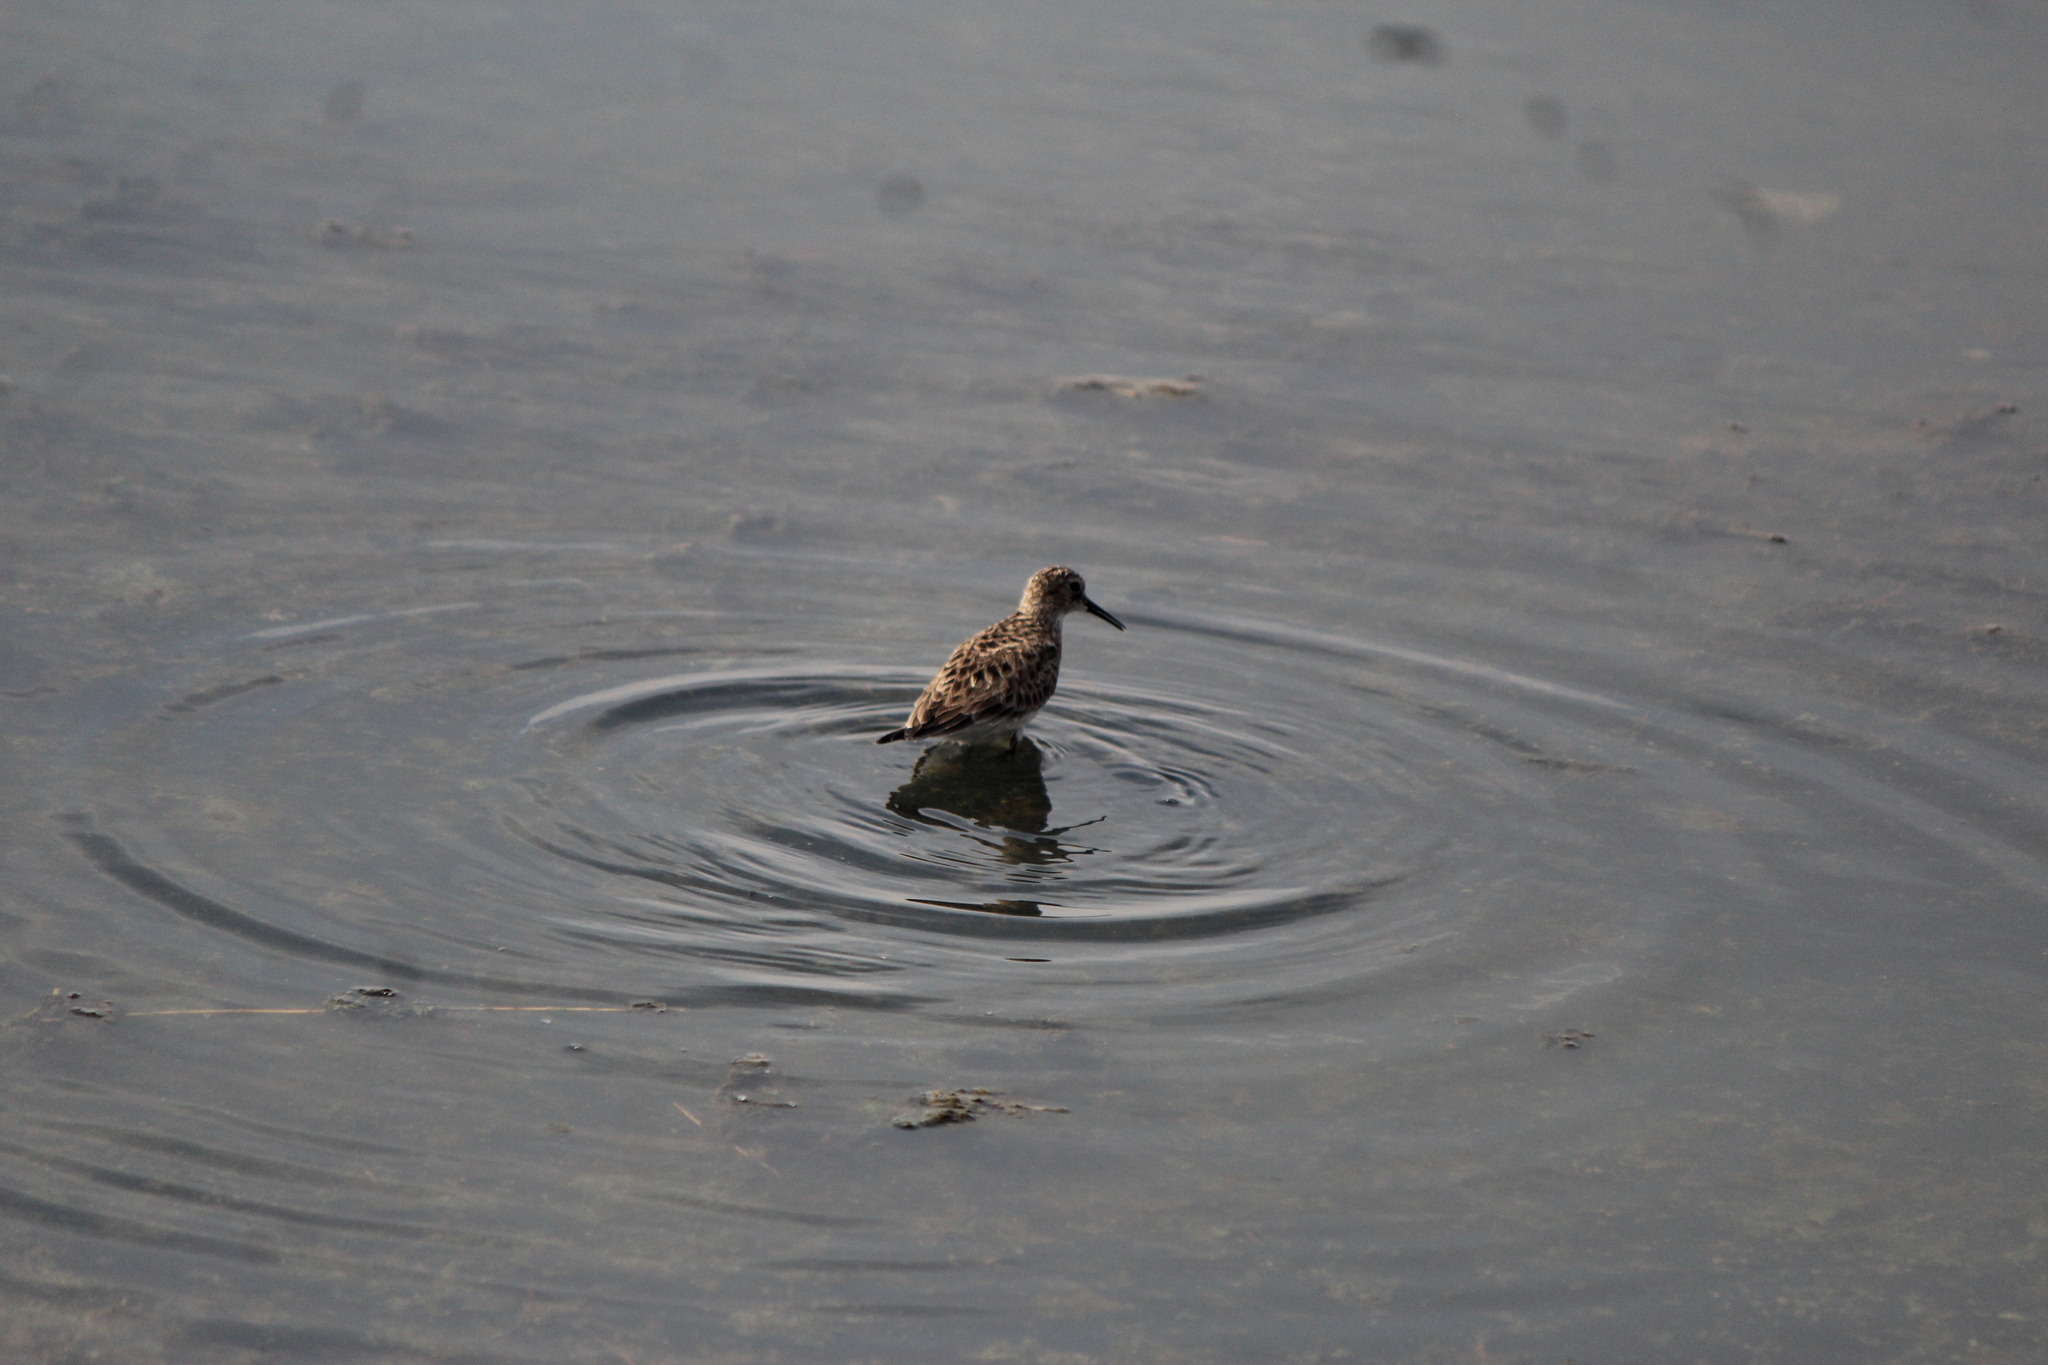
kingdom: Animalia
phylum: Chordata
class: Aves
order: Charadriiformes
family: Scolopacidae
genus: Calidris
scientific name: Calidris bairdii
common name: Baird's sandpiper
